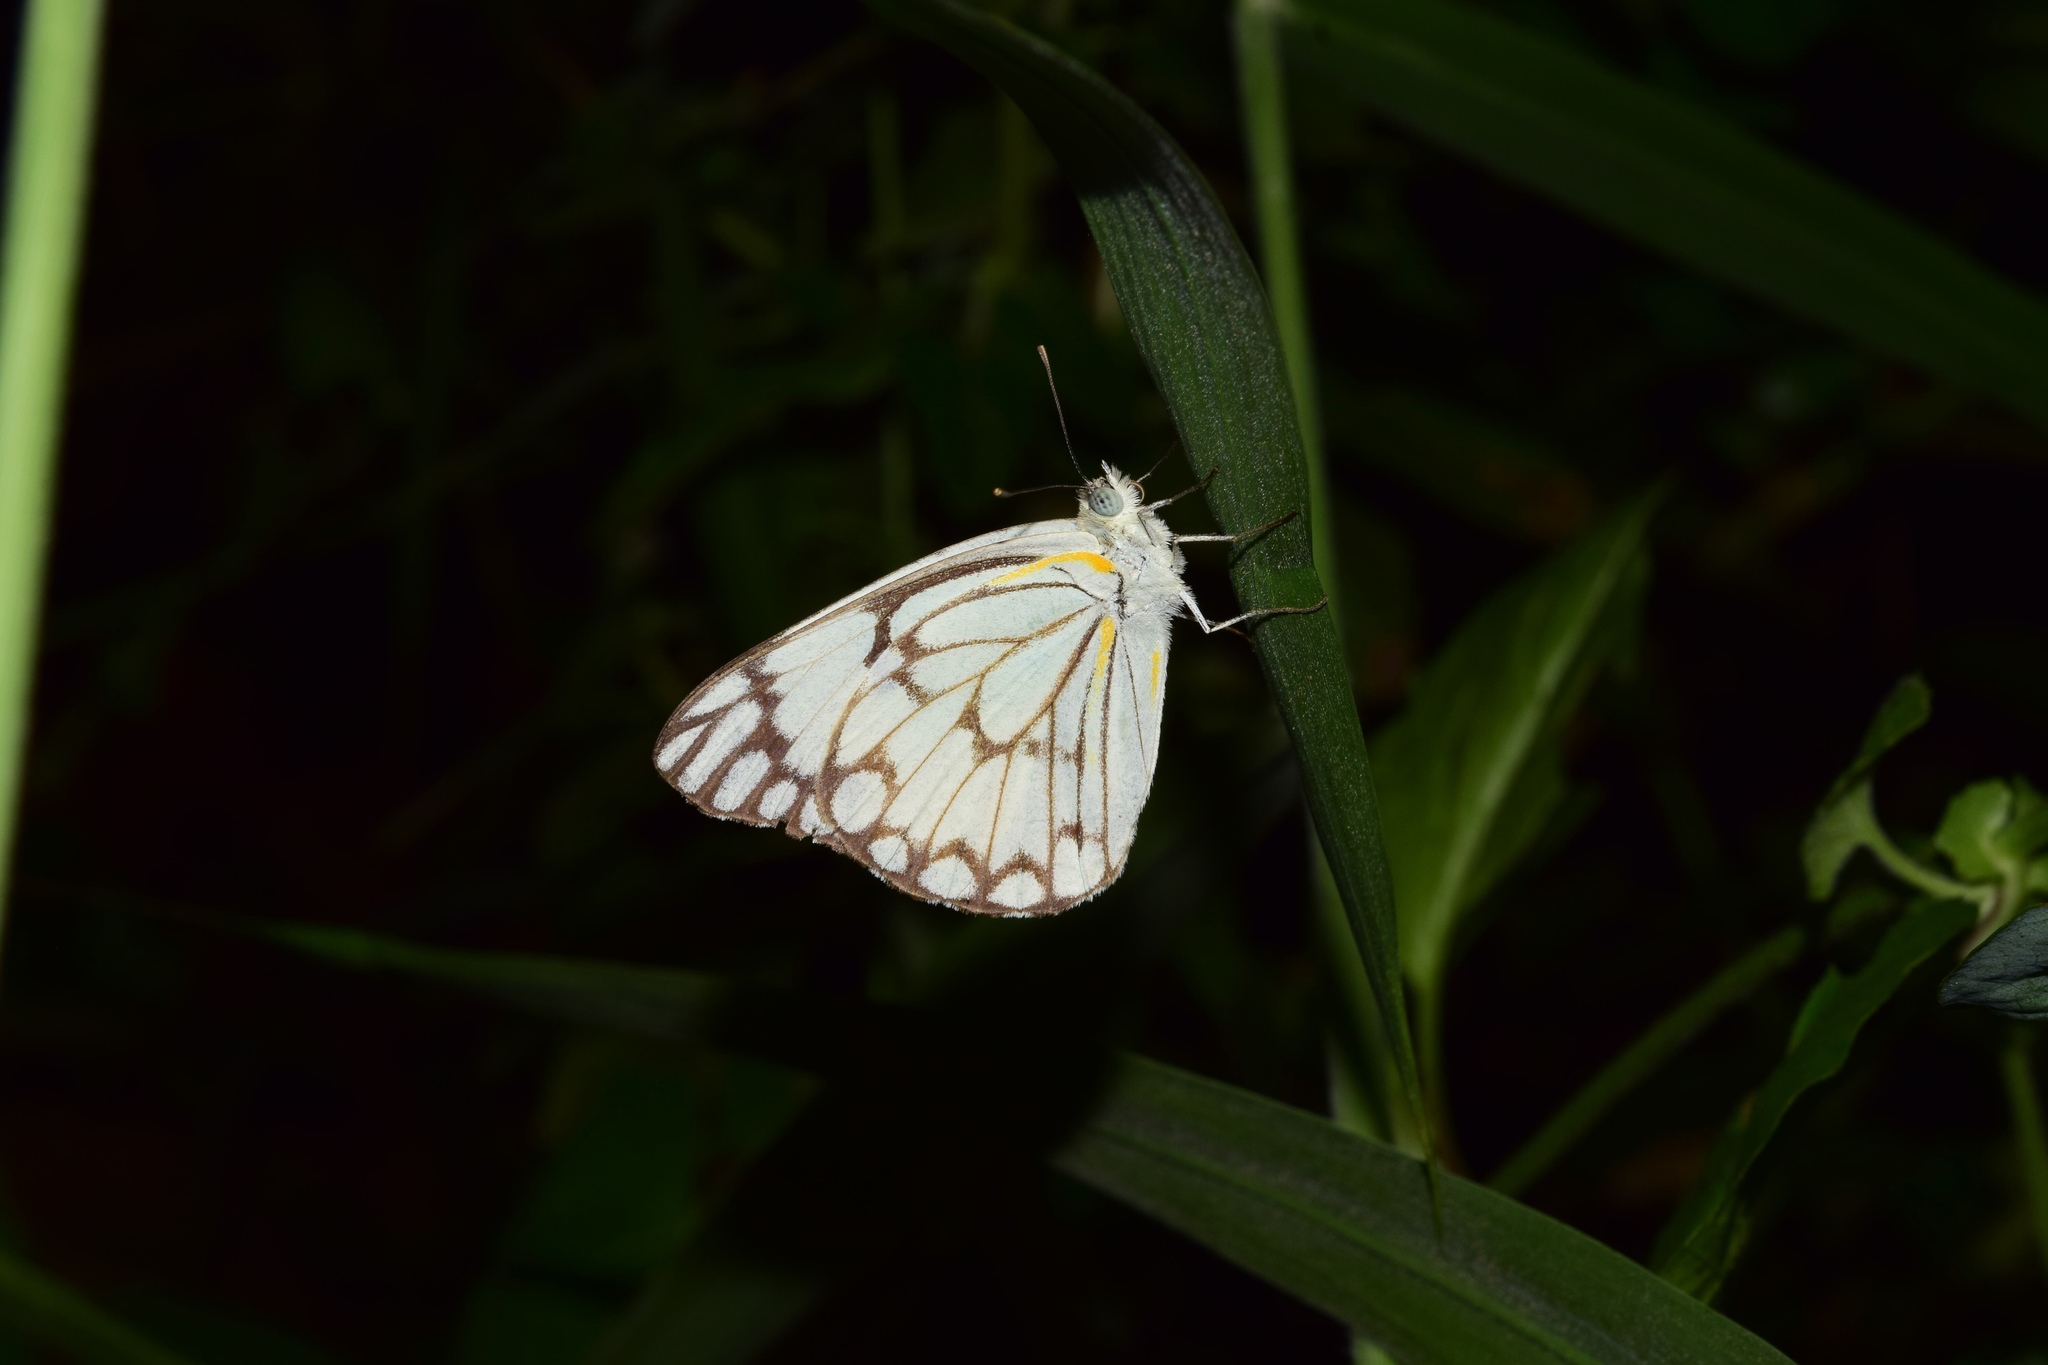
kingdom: Animalia
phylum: Arthropoda
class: Insecta
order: Lepidoptera
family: Pieridae
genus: Belenois
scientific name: Belenois aurota
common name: Brown-veined white
